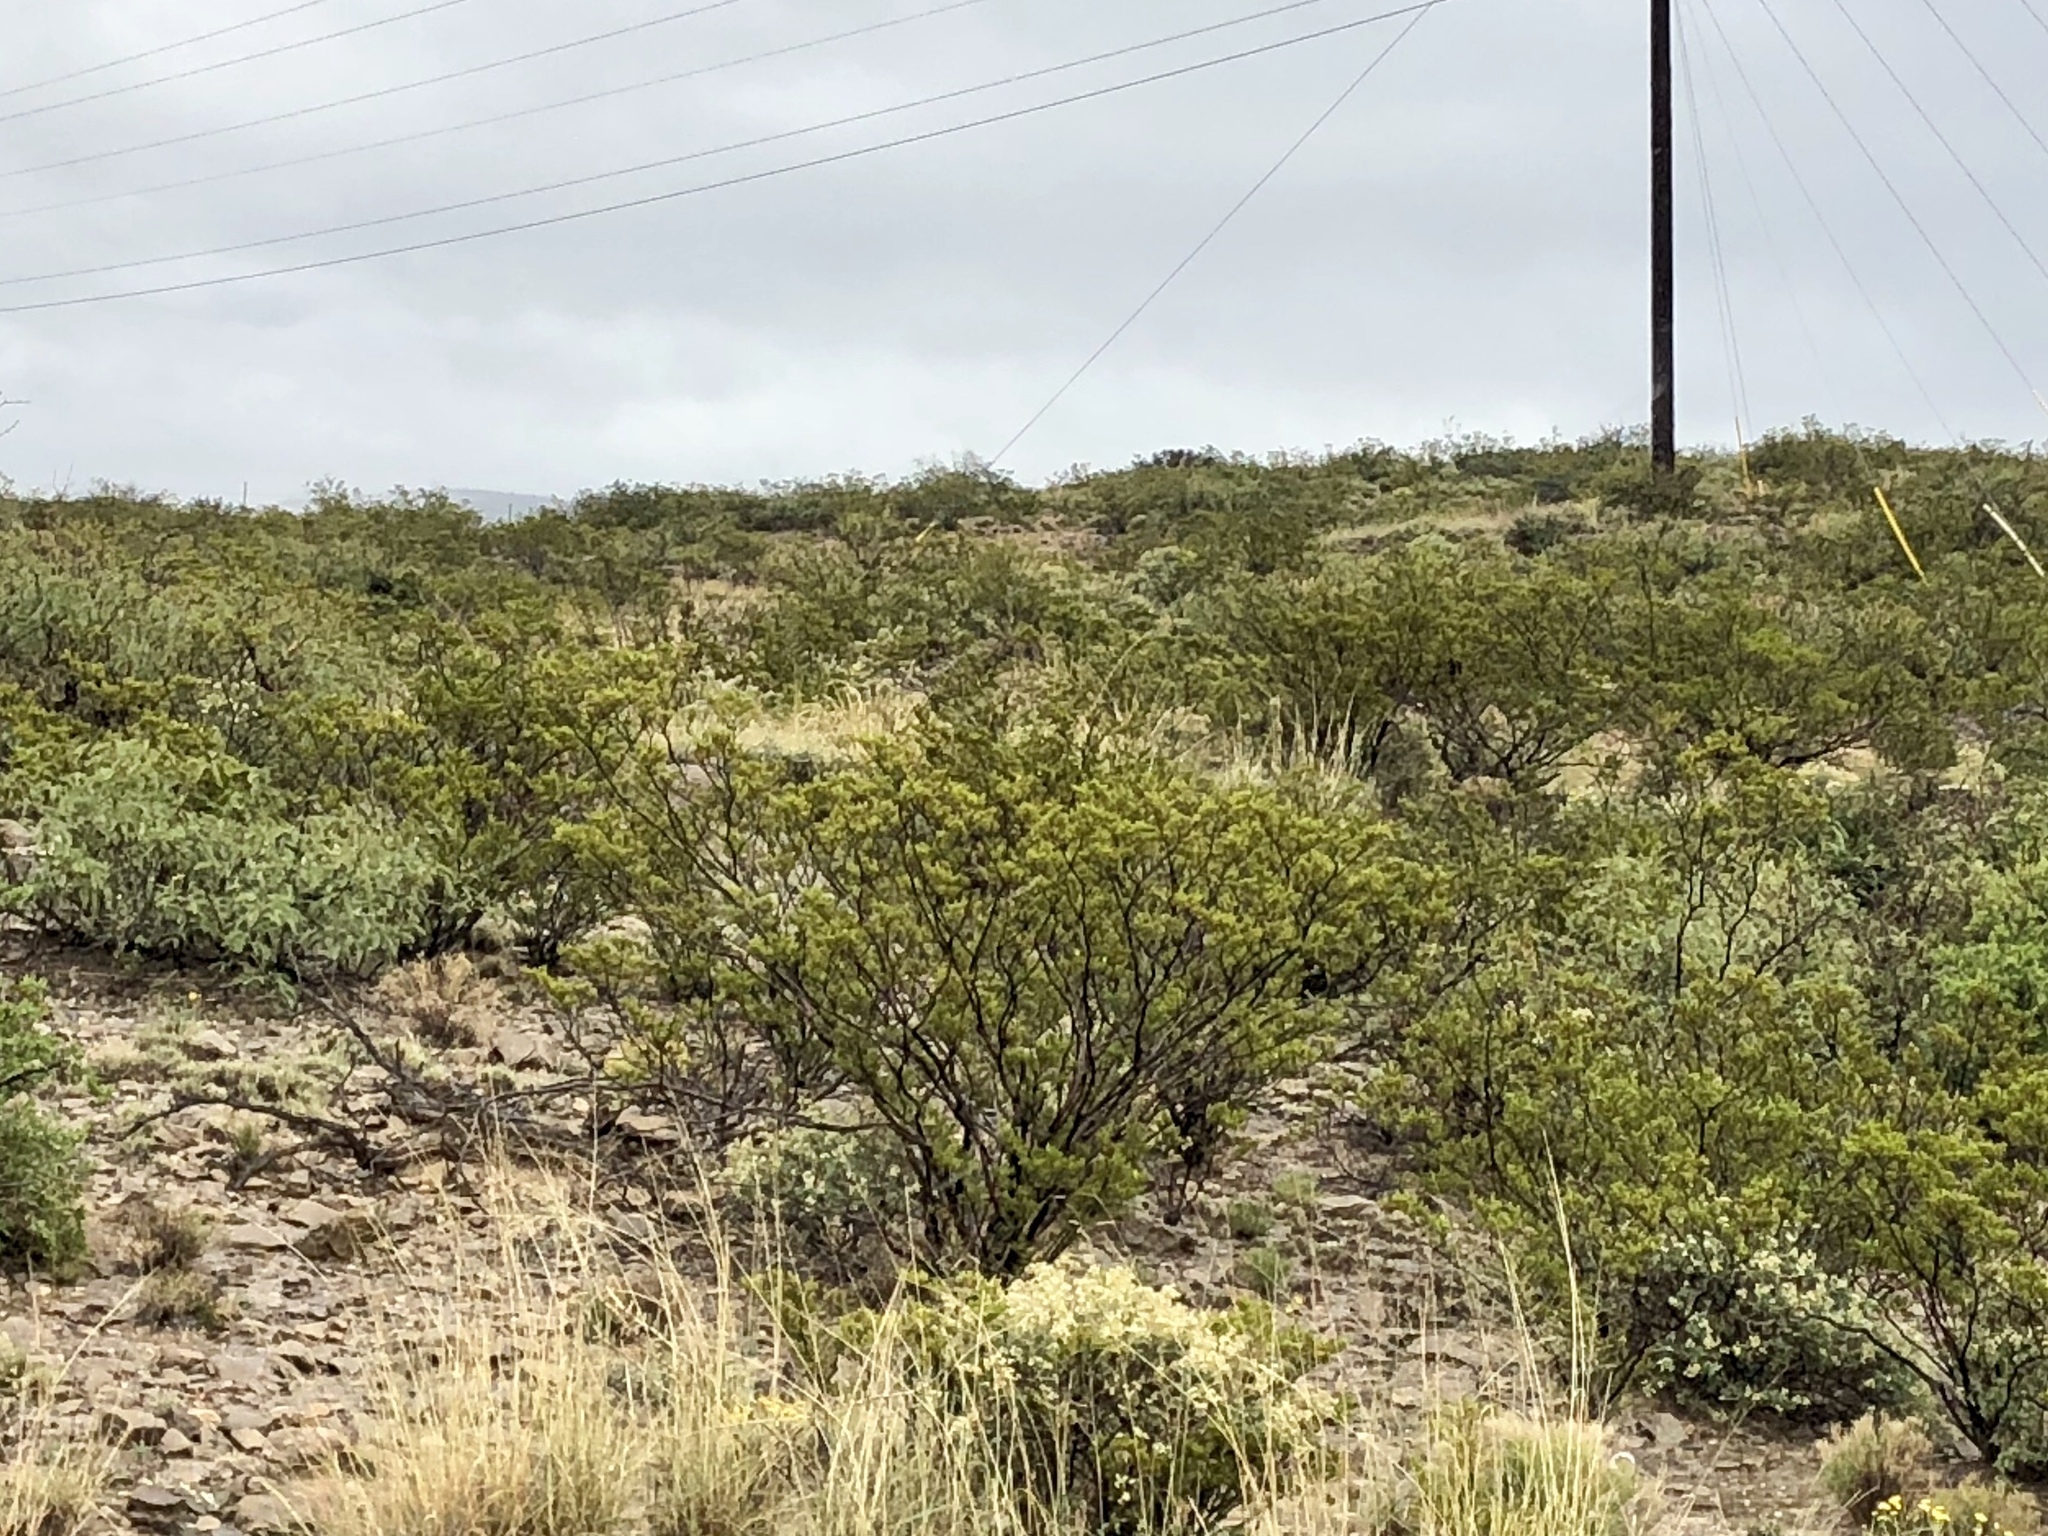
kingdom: Plantae
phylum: Tracheophyta
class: Magnoliopsida
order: Zygophyllales
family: Zygophyllaceae
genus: Larrea
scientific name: Larrea tridentata
